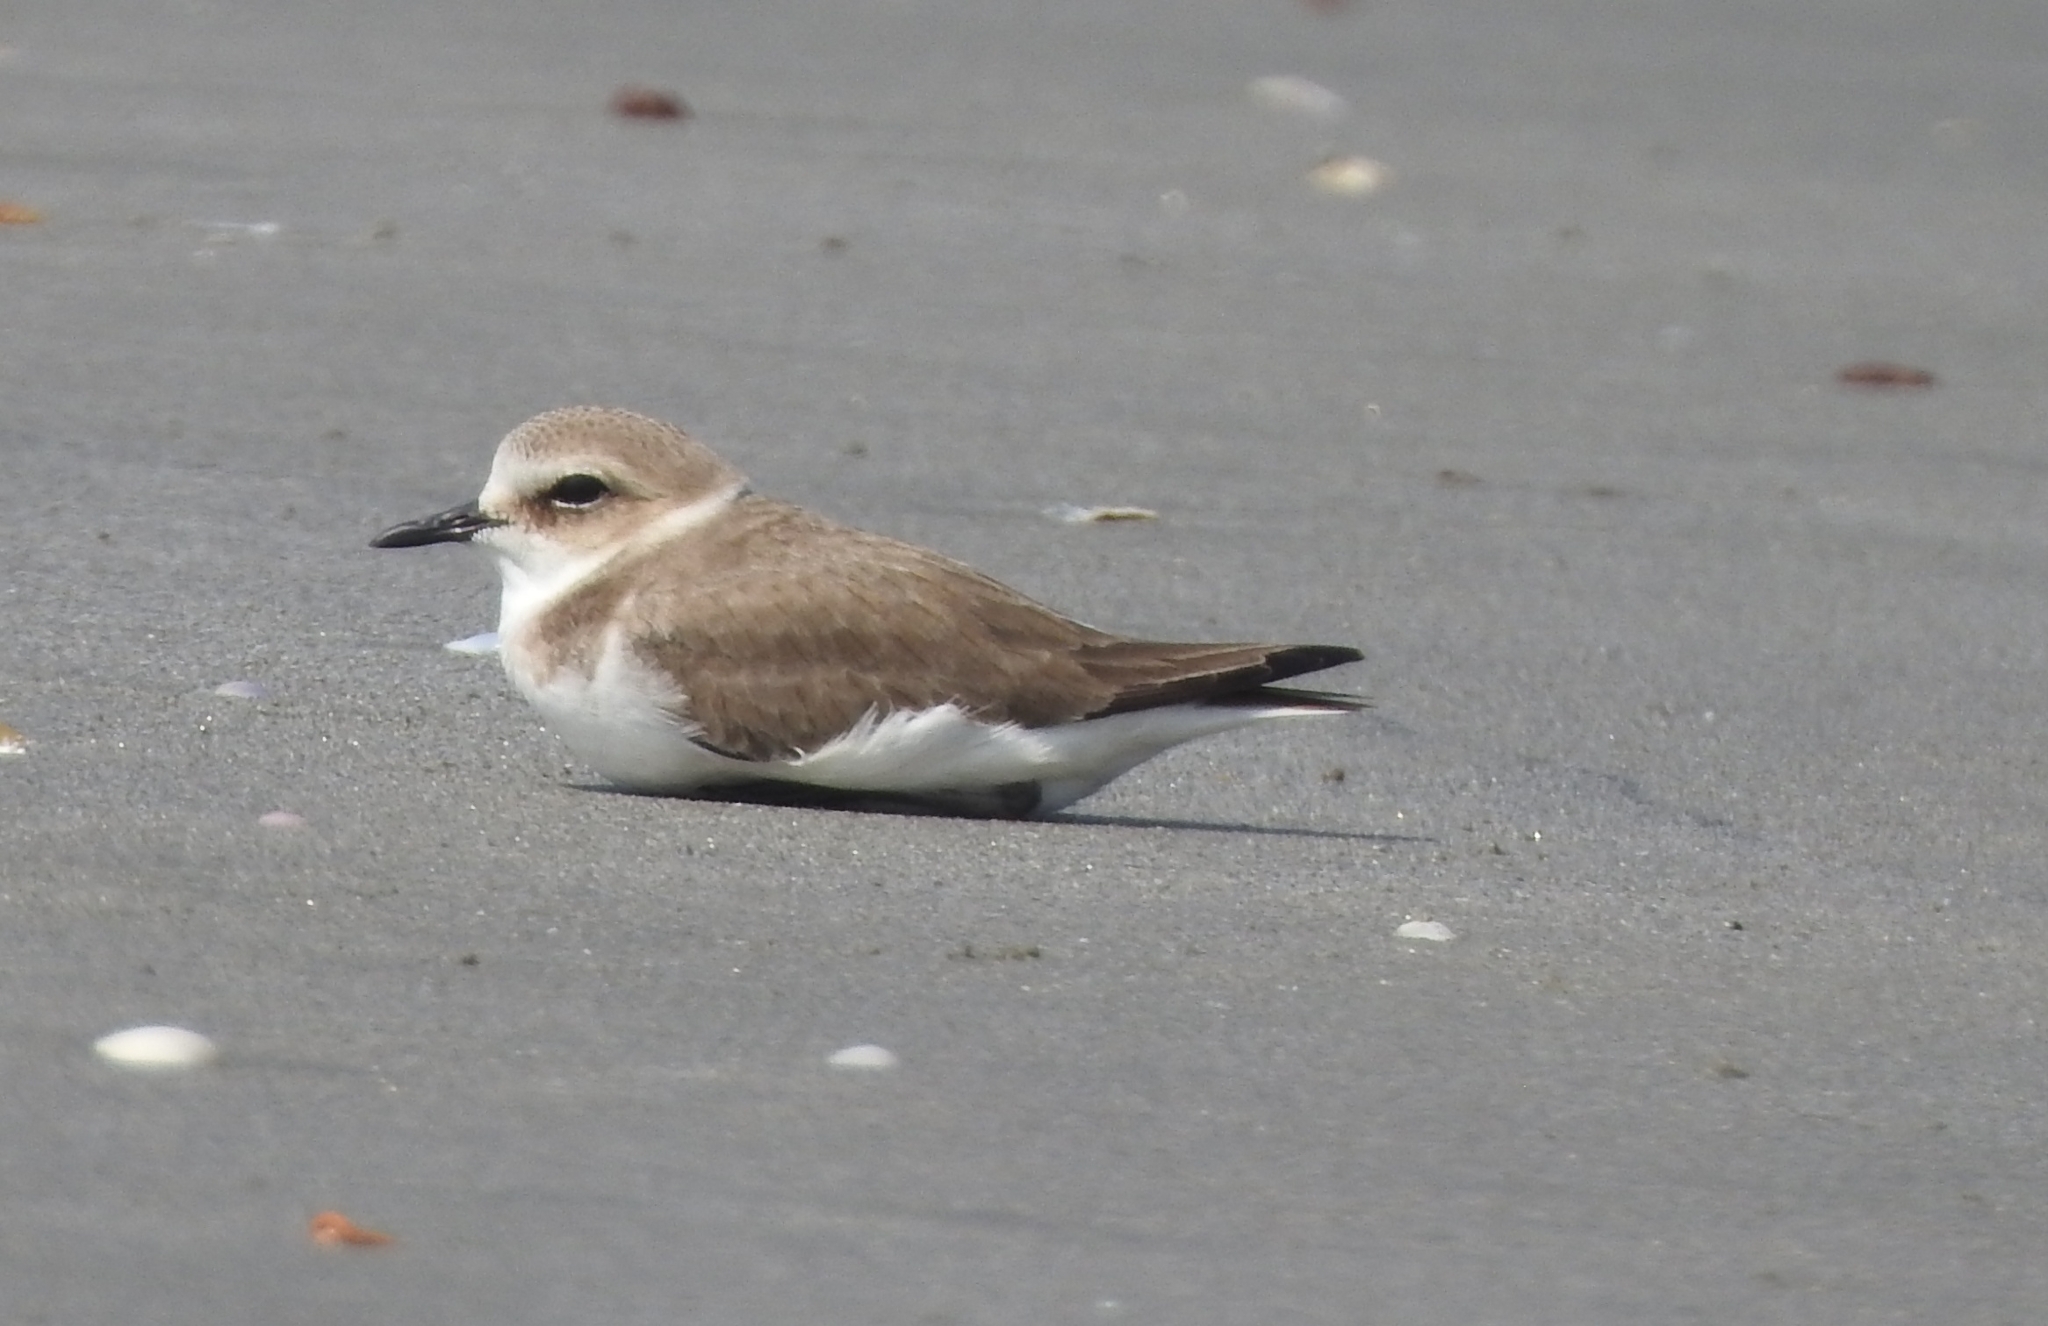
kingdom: Animalia
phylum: Chordata
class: Aves
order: Charadriiformes
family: Charadriidae
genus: Charadrius
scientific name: Charadrius alexandrinus
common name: Kentish plover
